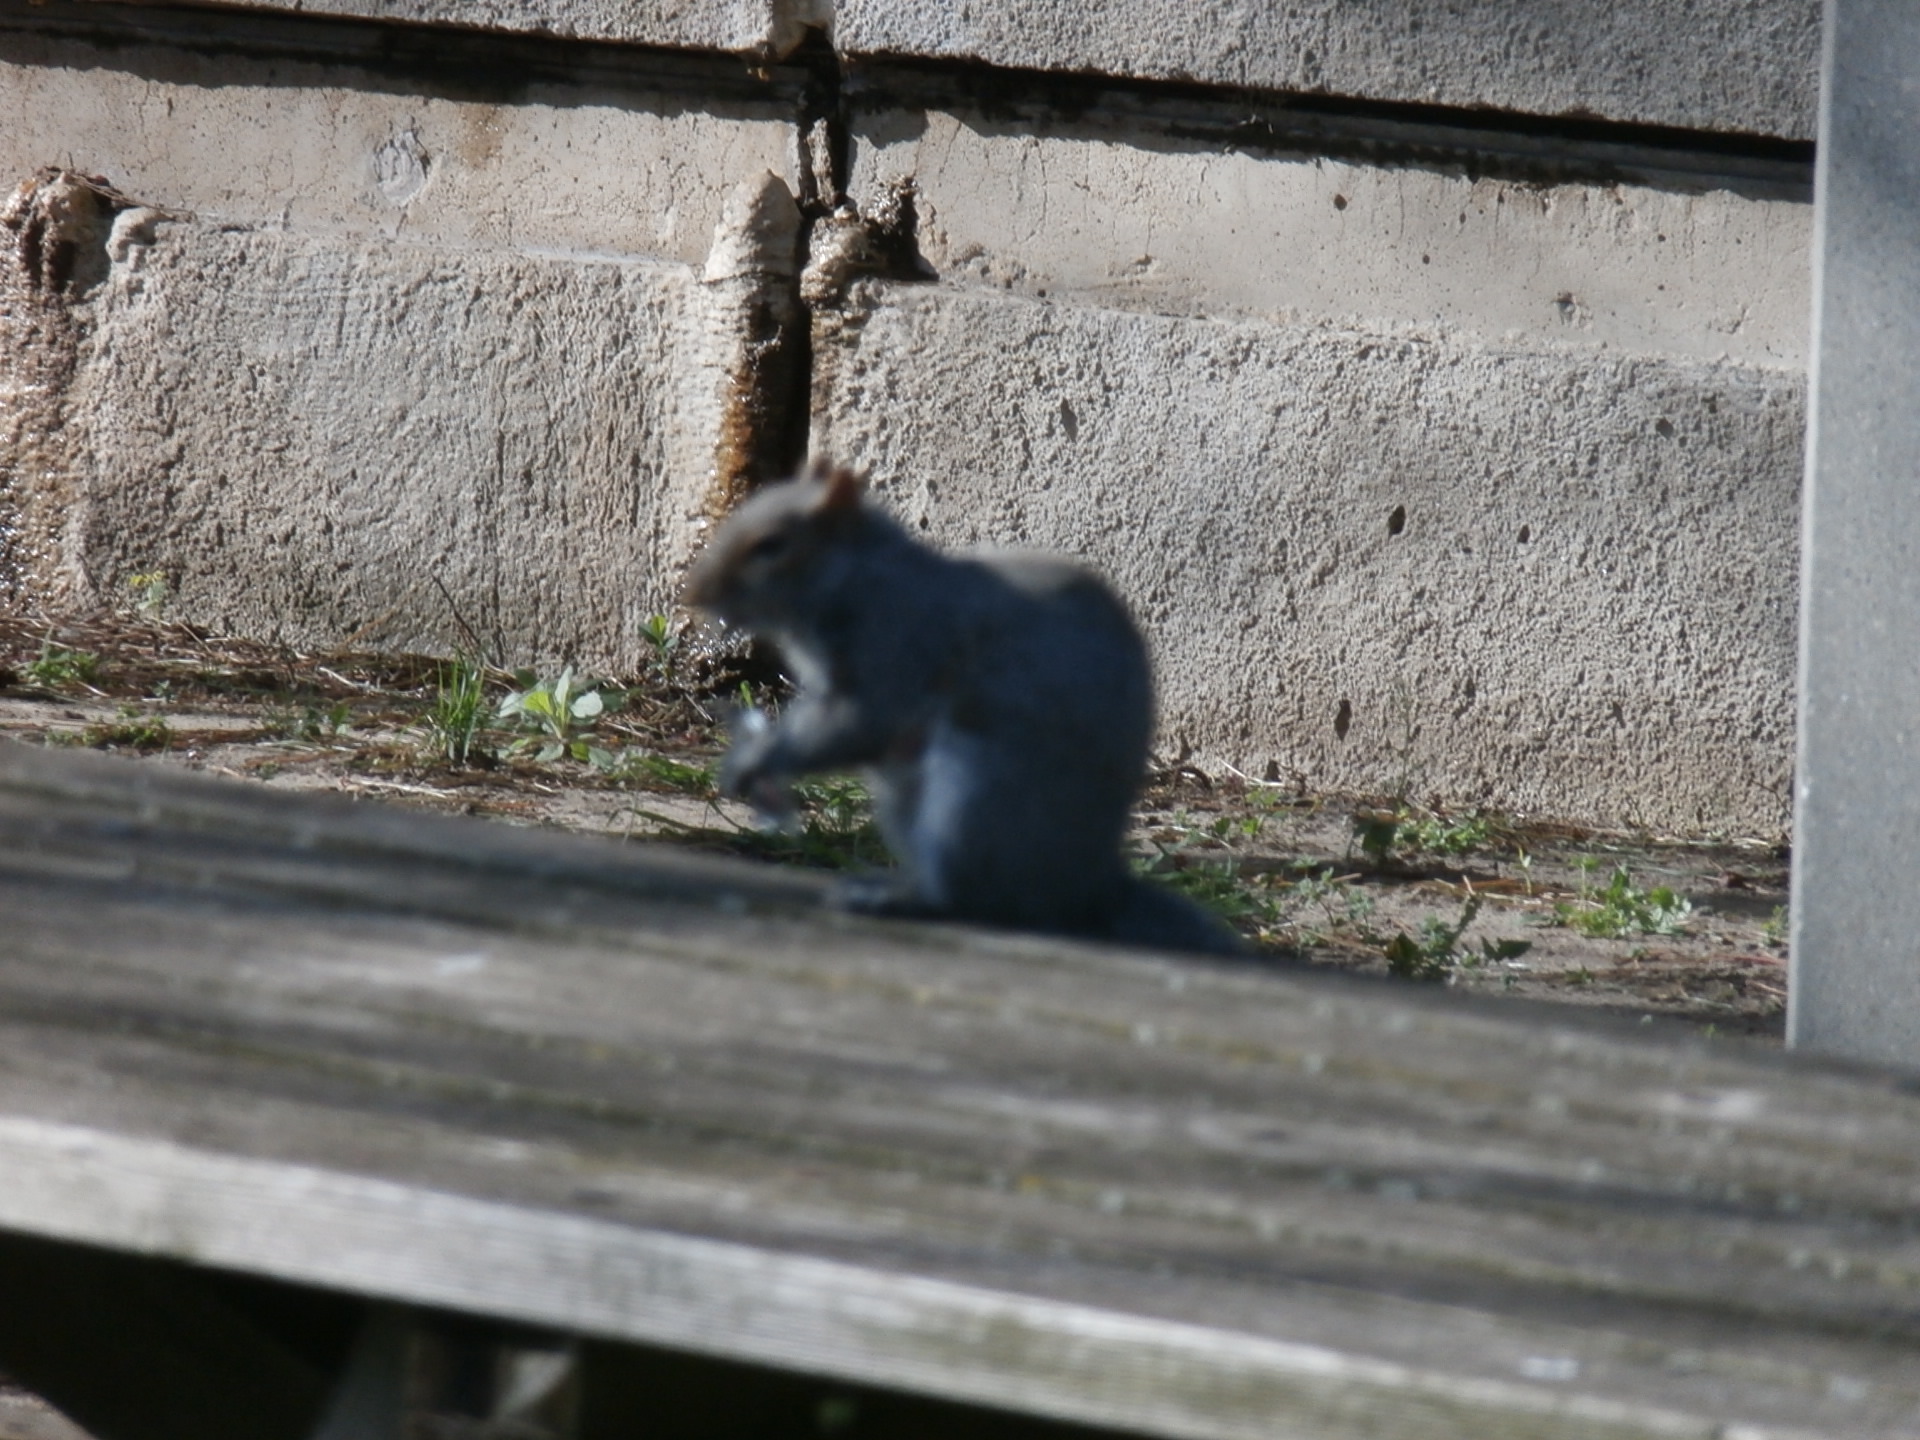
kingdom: Animalia
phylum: Chordata
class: Mammalia
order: Rodentia
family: Sciuridae
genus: Sciurus
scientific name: Sciurus carolinensis
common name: Eastern gray squirrel
